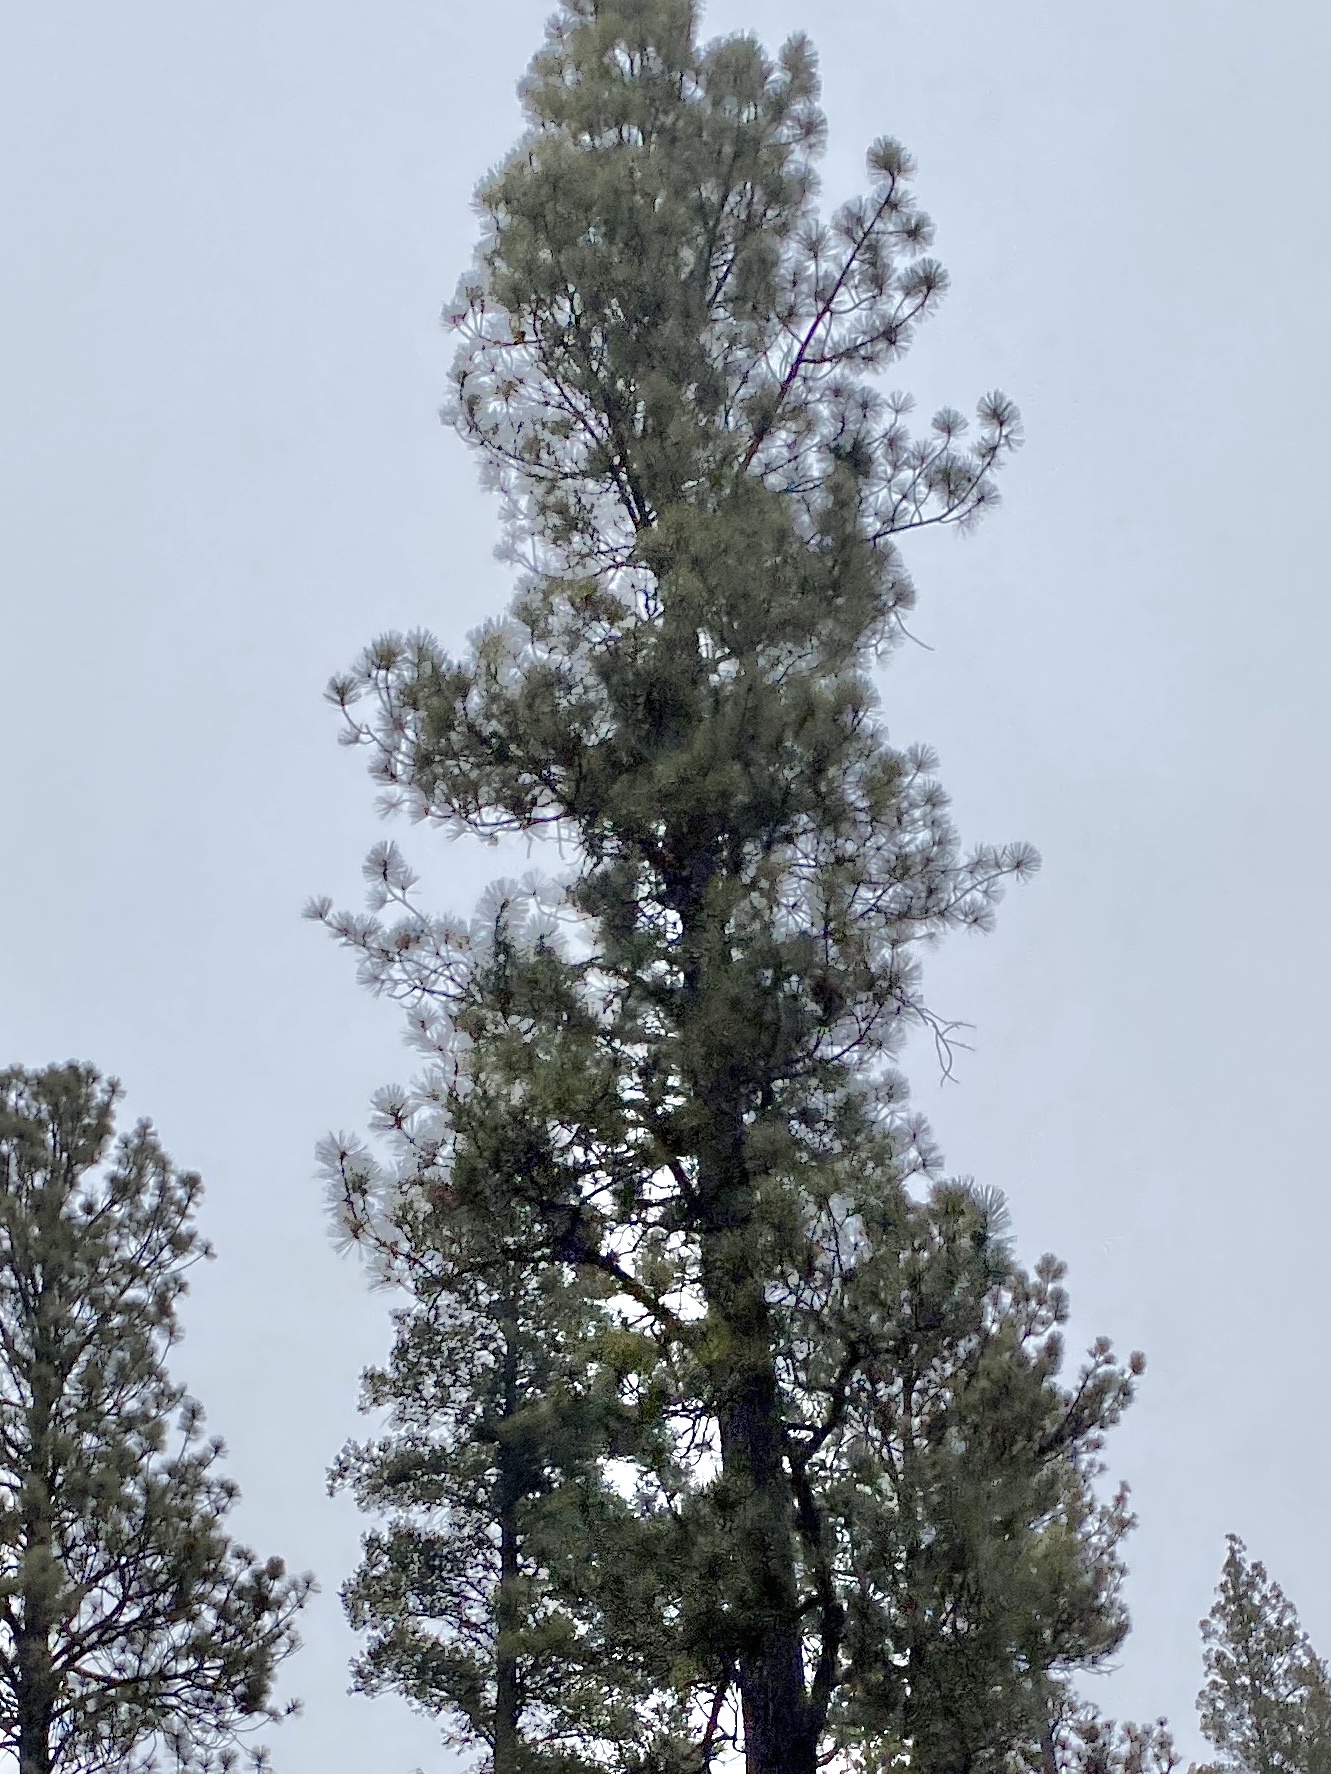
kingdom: Plantae
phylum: Tracheophyta
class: Pinopsida
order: Pinales
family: Pinaceae
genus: Pinus
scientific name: Pinus ponderosa
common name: Western yellow-pine
